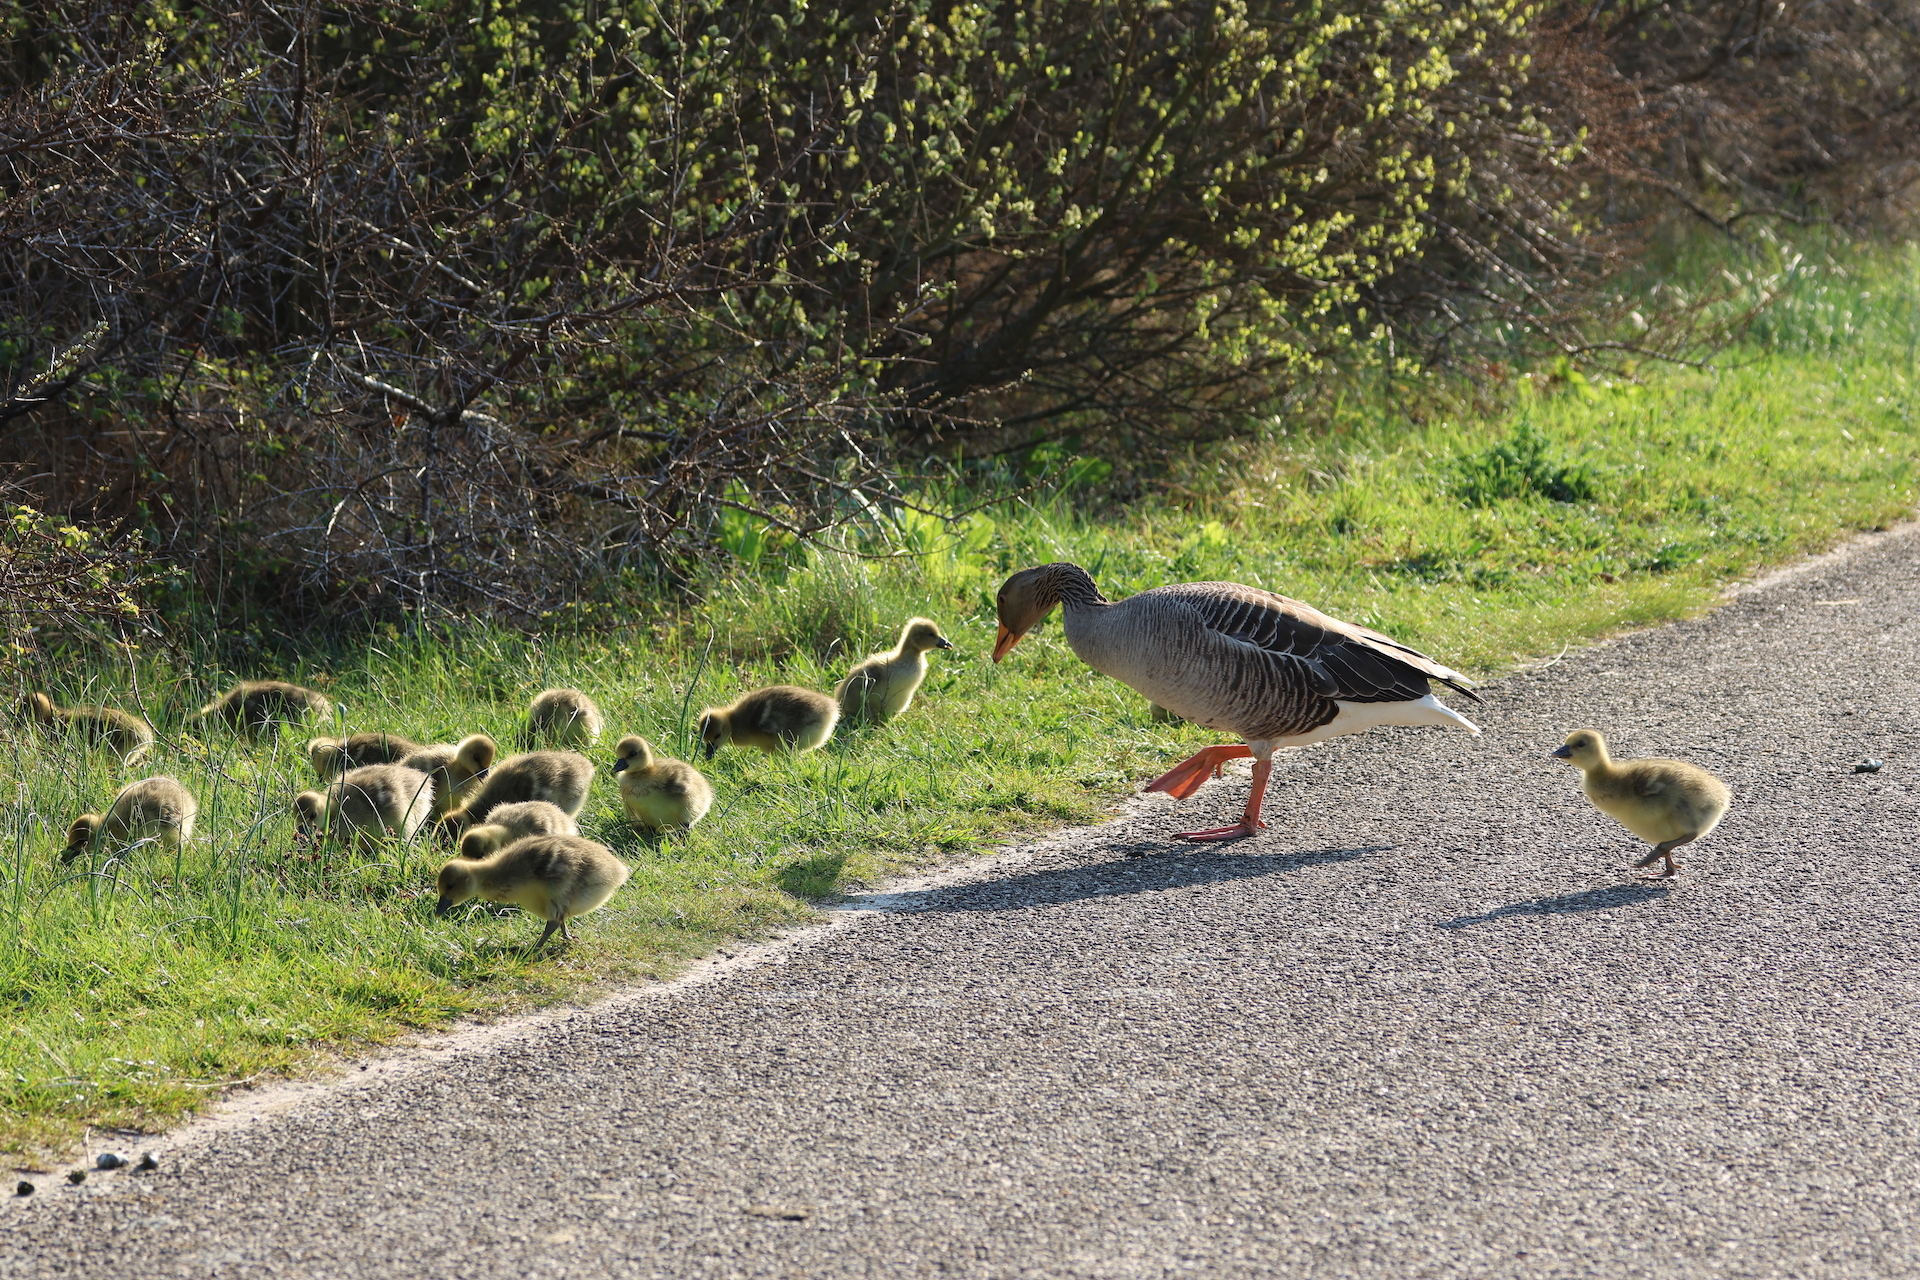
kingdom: Animalia
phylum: Chordata
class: Aves
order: Anseriformes
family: Anatidae
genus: Anser
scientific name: Anser anser
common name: Greylag goose
